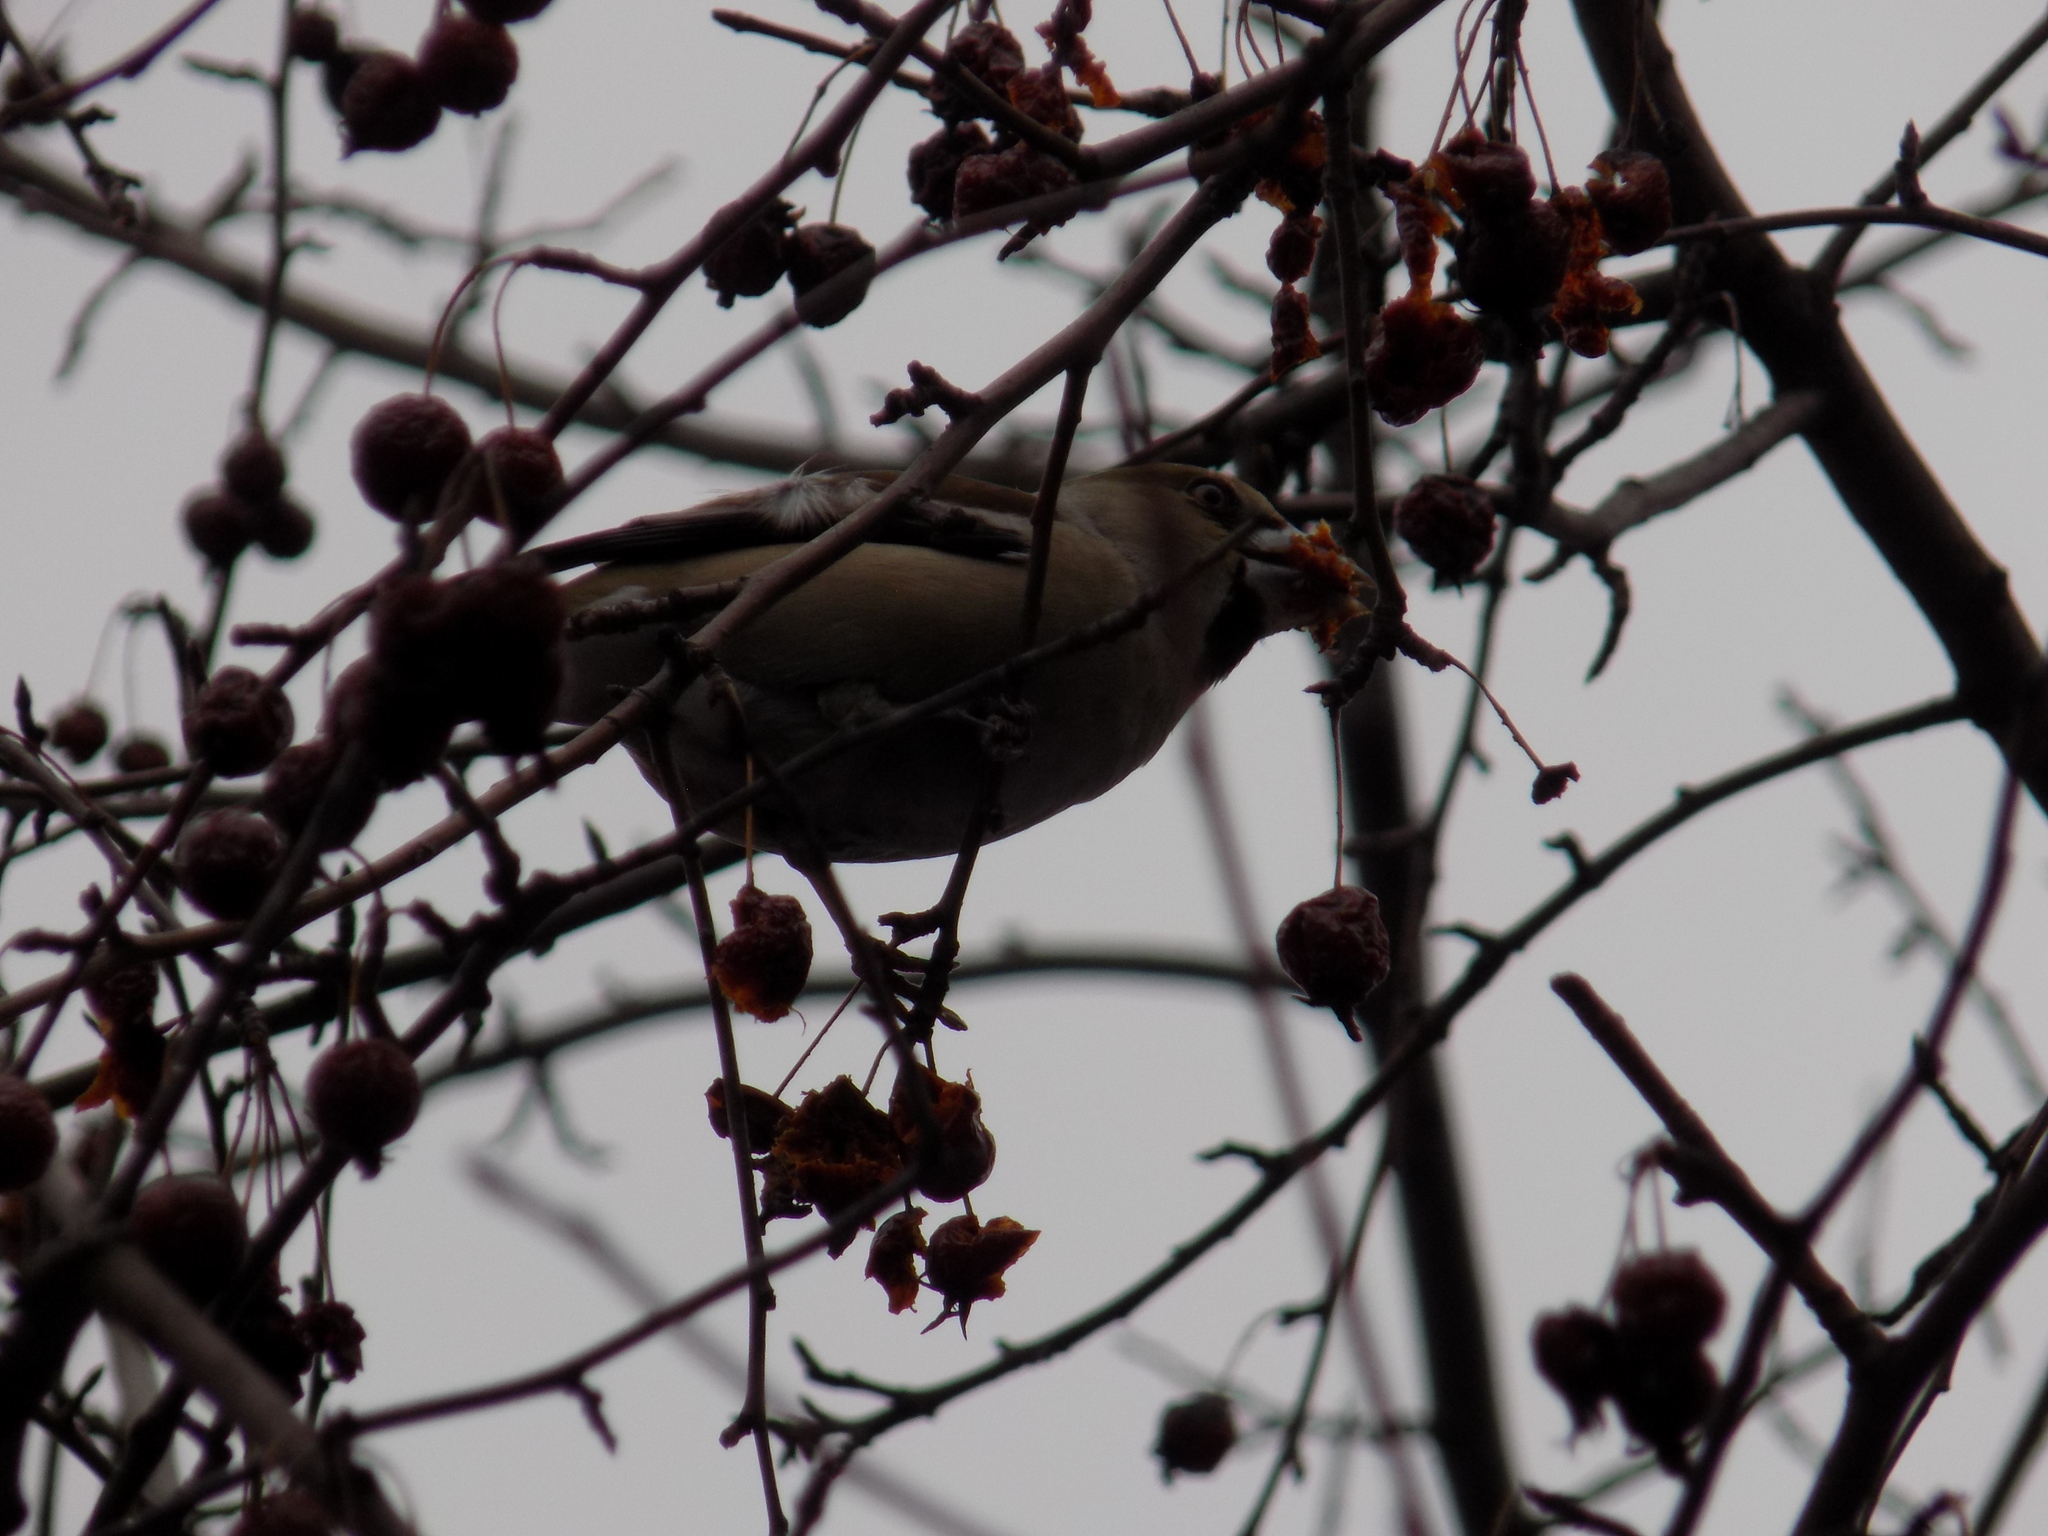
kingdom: Animalia
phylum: Chordata
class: Aves
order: Passeriformes
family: Fringillidae
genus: Coccothraustes
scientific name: Coccothraustes coccothraustes
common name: Hawfinch
